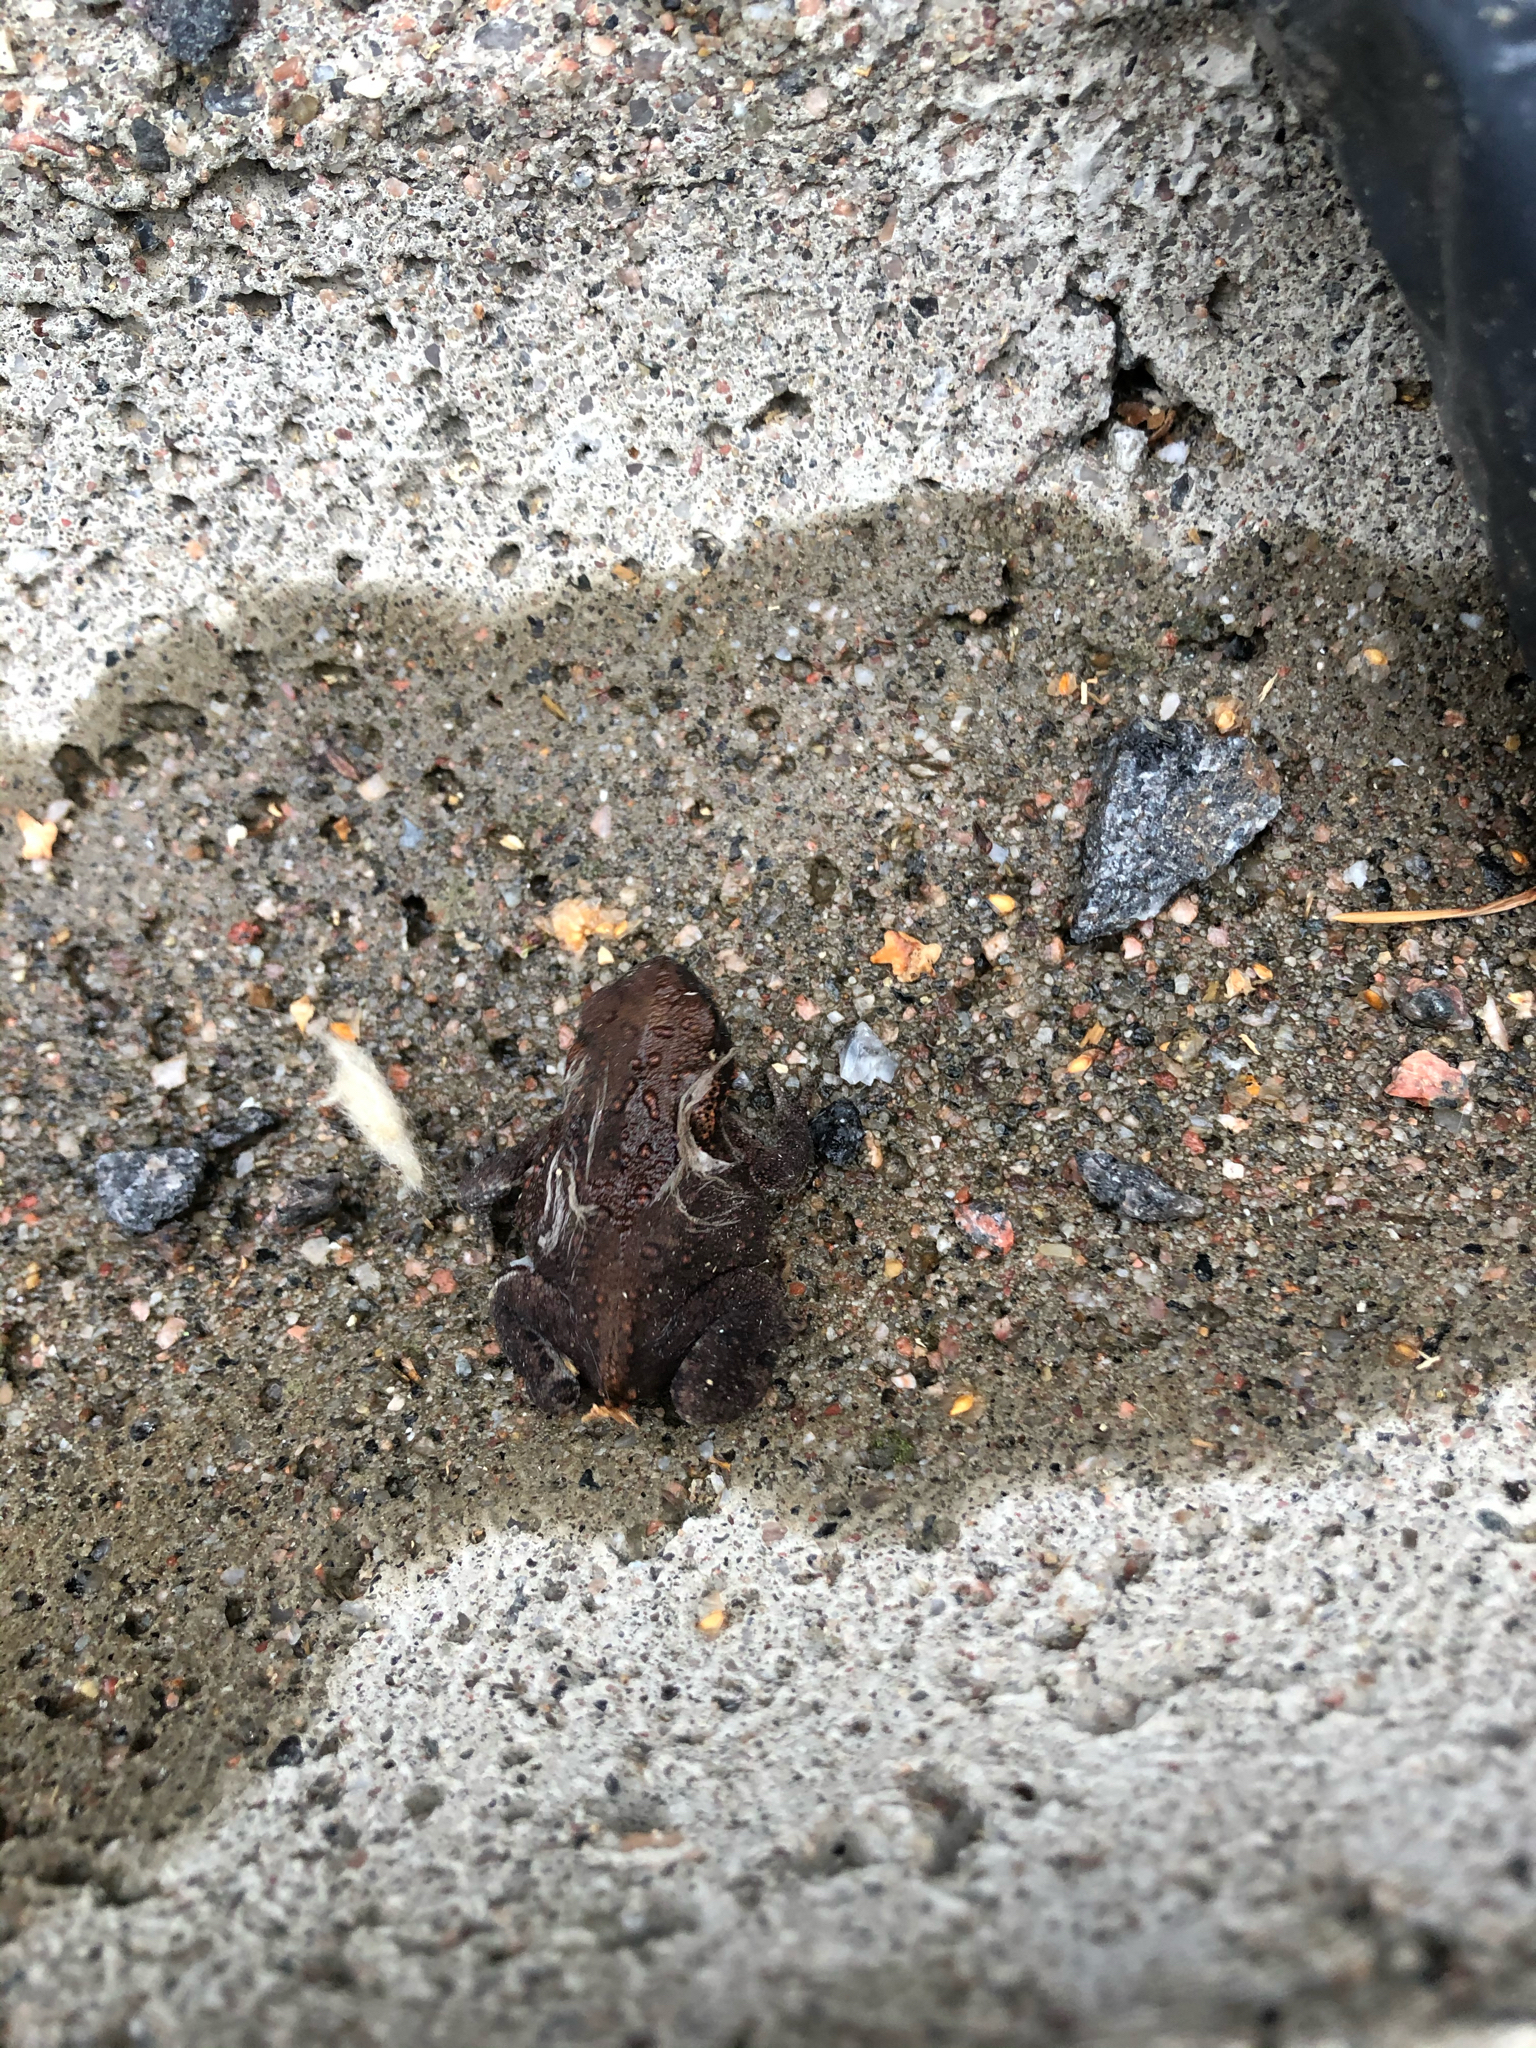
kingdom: Animalia
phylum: Chordata
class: Amphibia
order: Anura
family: Bufonidae
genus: Bufo
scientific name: Bufo bufo
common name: Common toad
